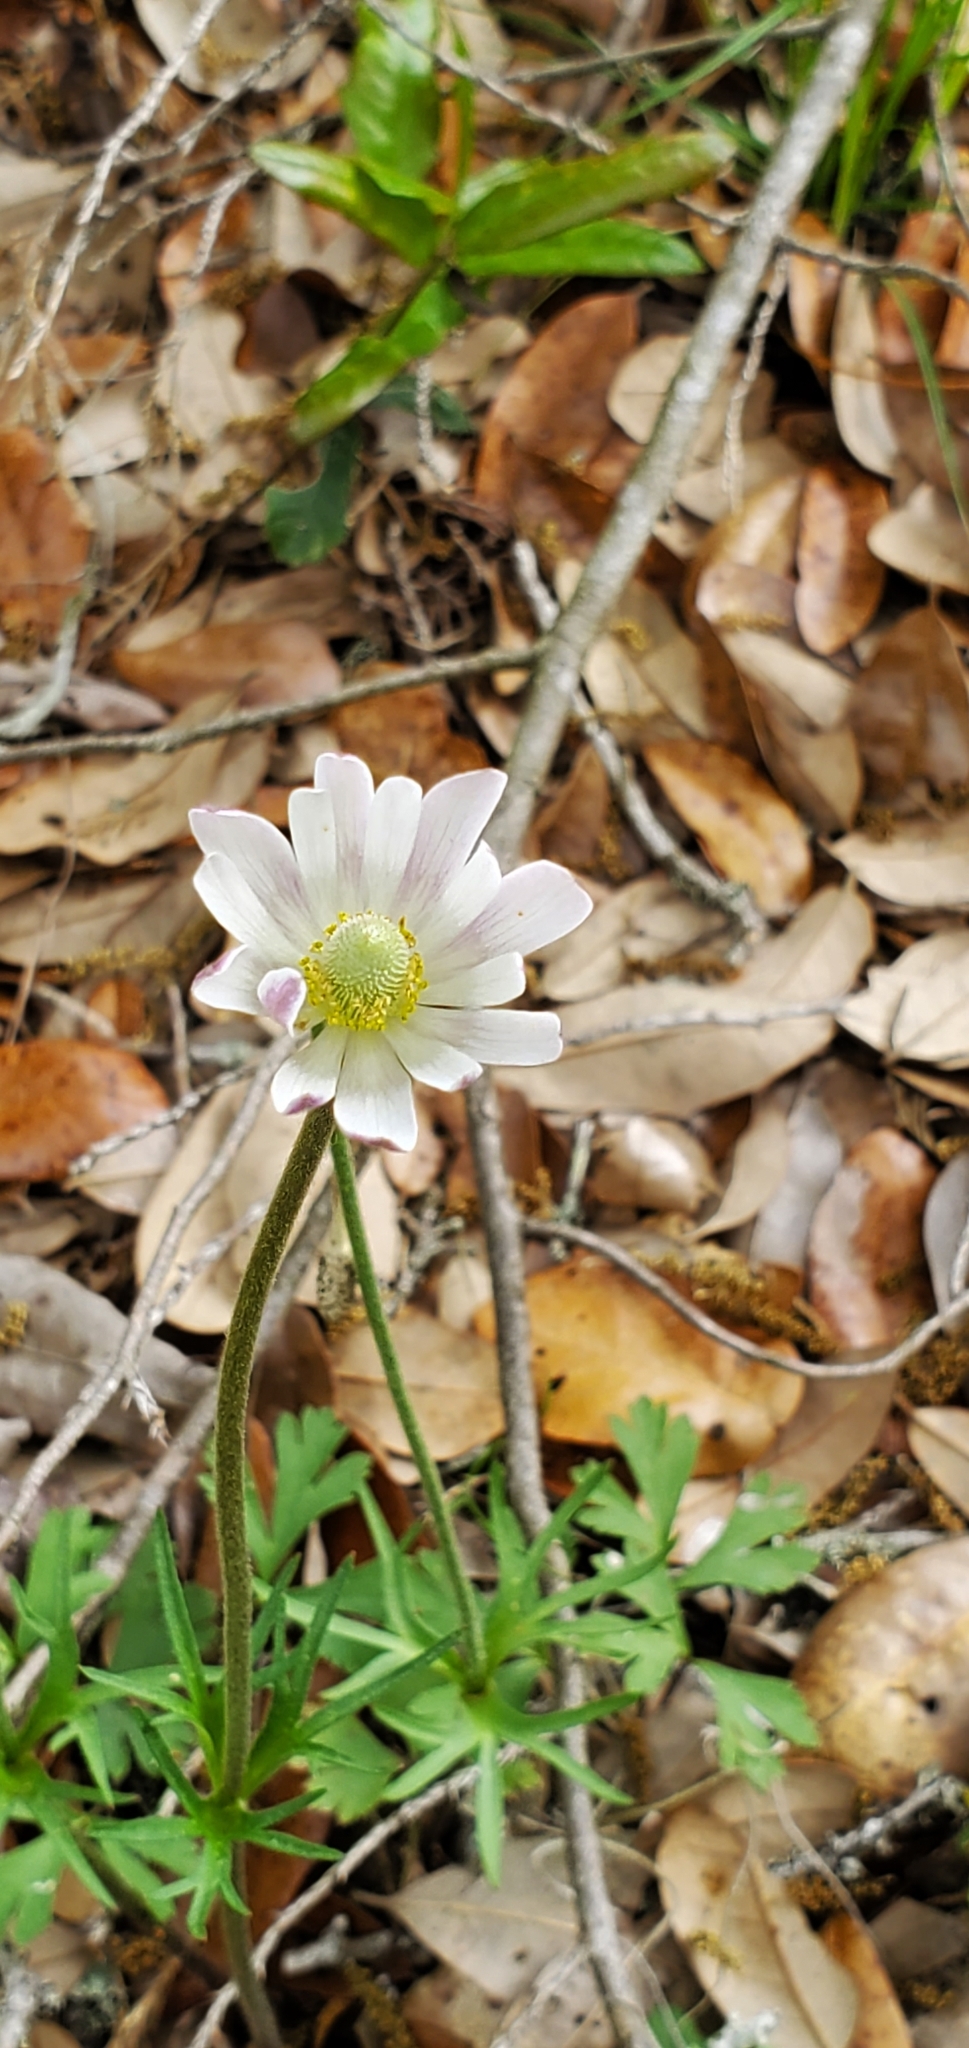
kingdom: Plantae
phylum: Tracheophyta
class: Magnoliopsida
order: Ranunculales
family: Ranunculaceae
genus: Anemone
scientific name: Anemone berlandieri
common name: Ten-petal anemone
